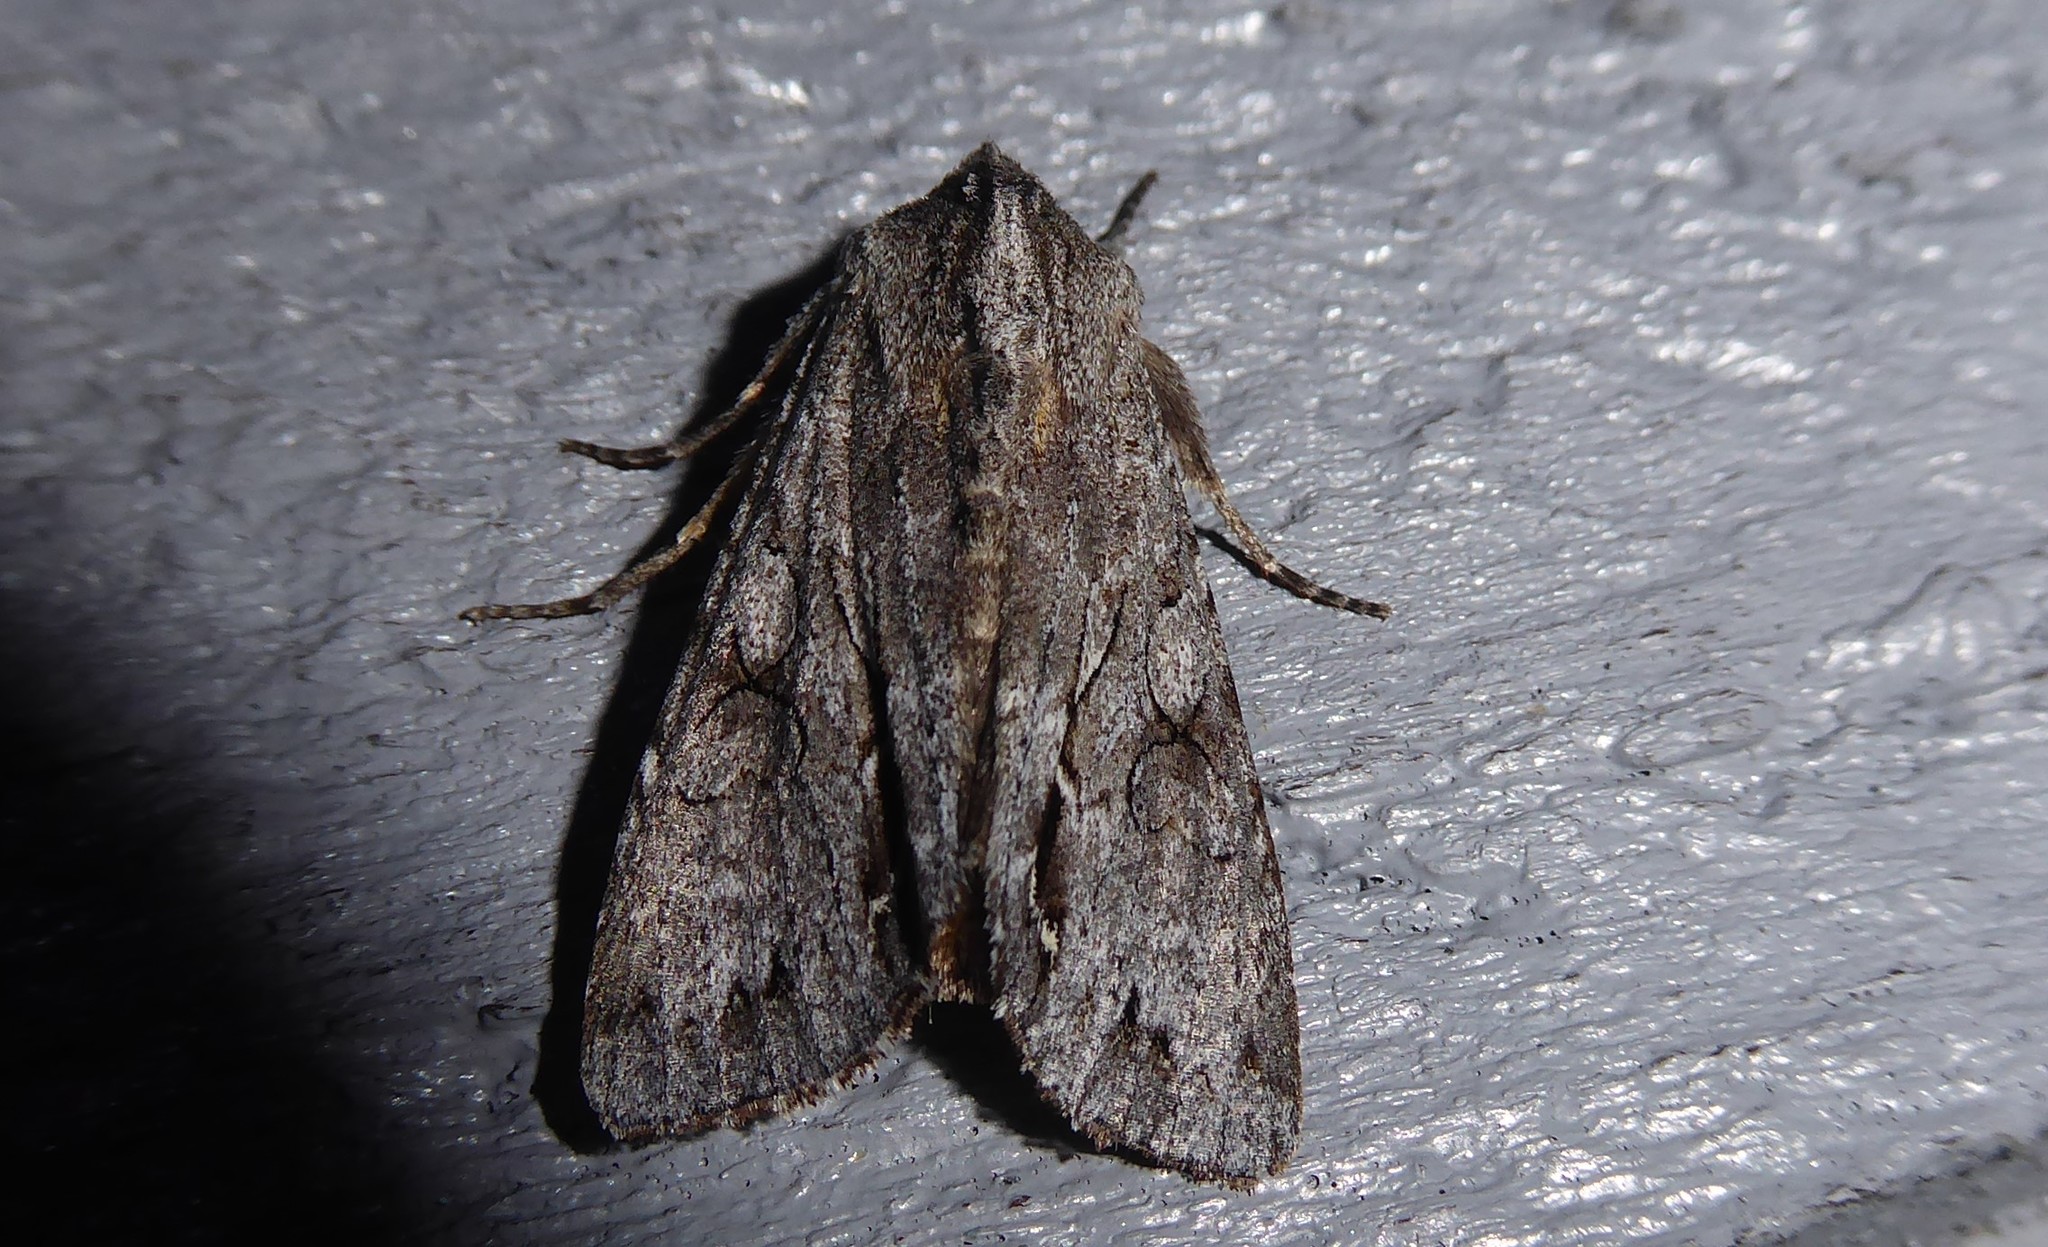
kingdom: Animalia
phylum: Arthropoda
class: Insecta
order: Lepidoptera
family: Noctuidae
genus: Ichneutica
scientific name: Ichneutica
